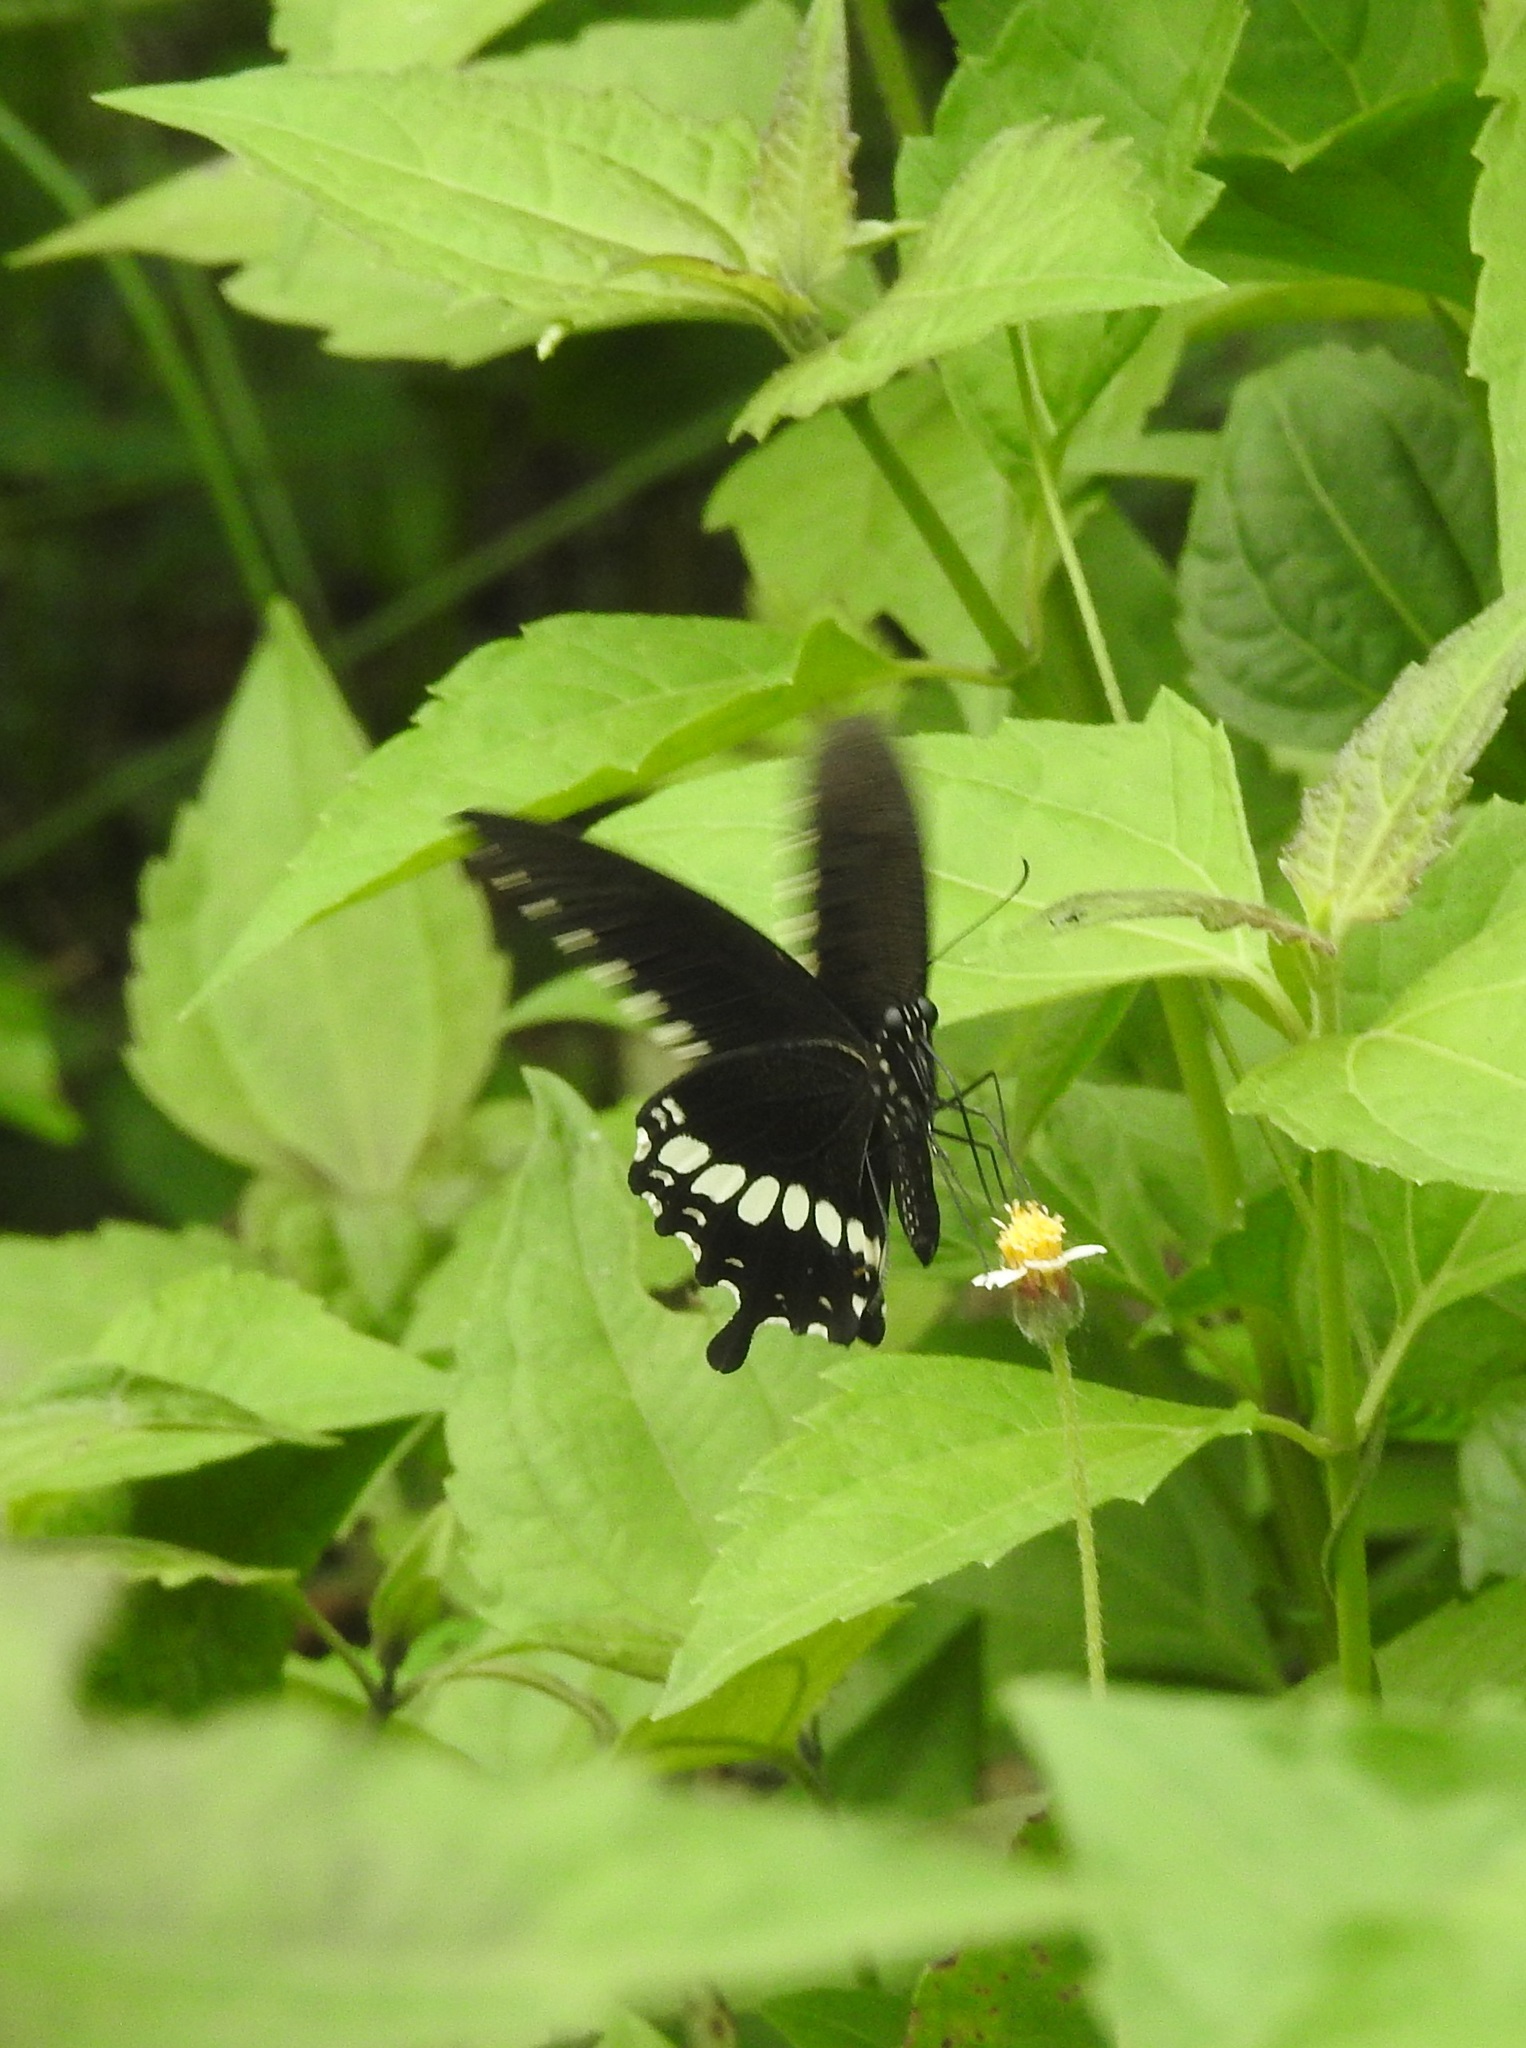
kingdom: Animalia
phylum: Arthropoda
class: Insecta
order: Lepidoptera
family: Papilionidae
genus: Papilio
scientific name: Papilio polytes
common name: Common mormon
